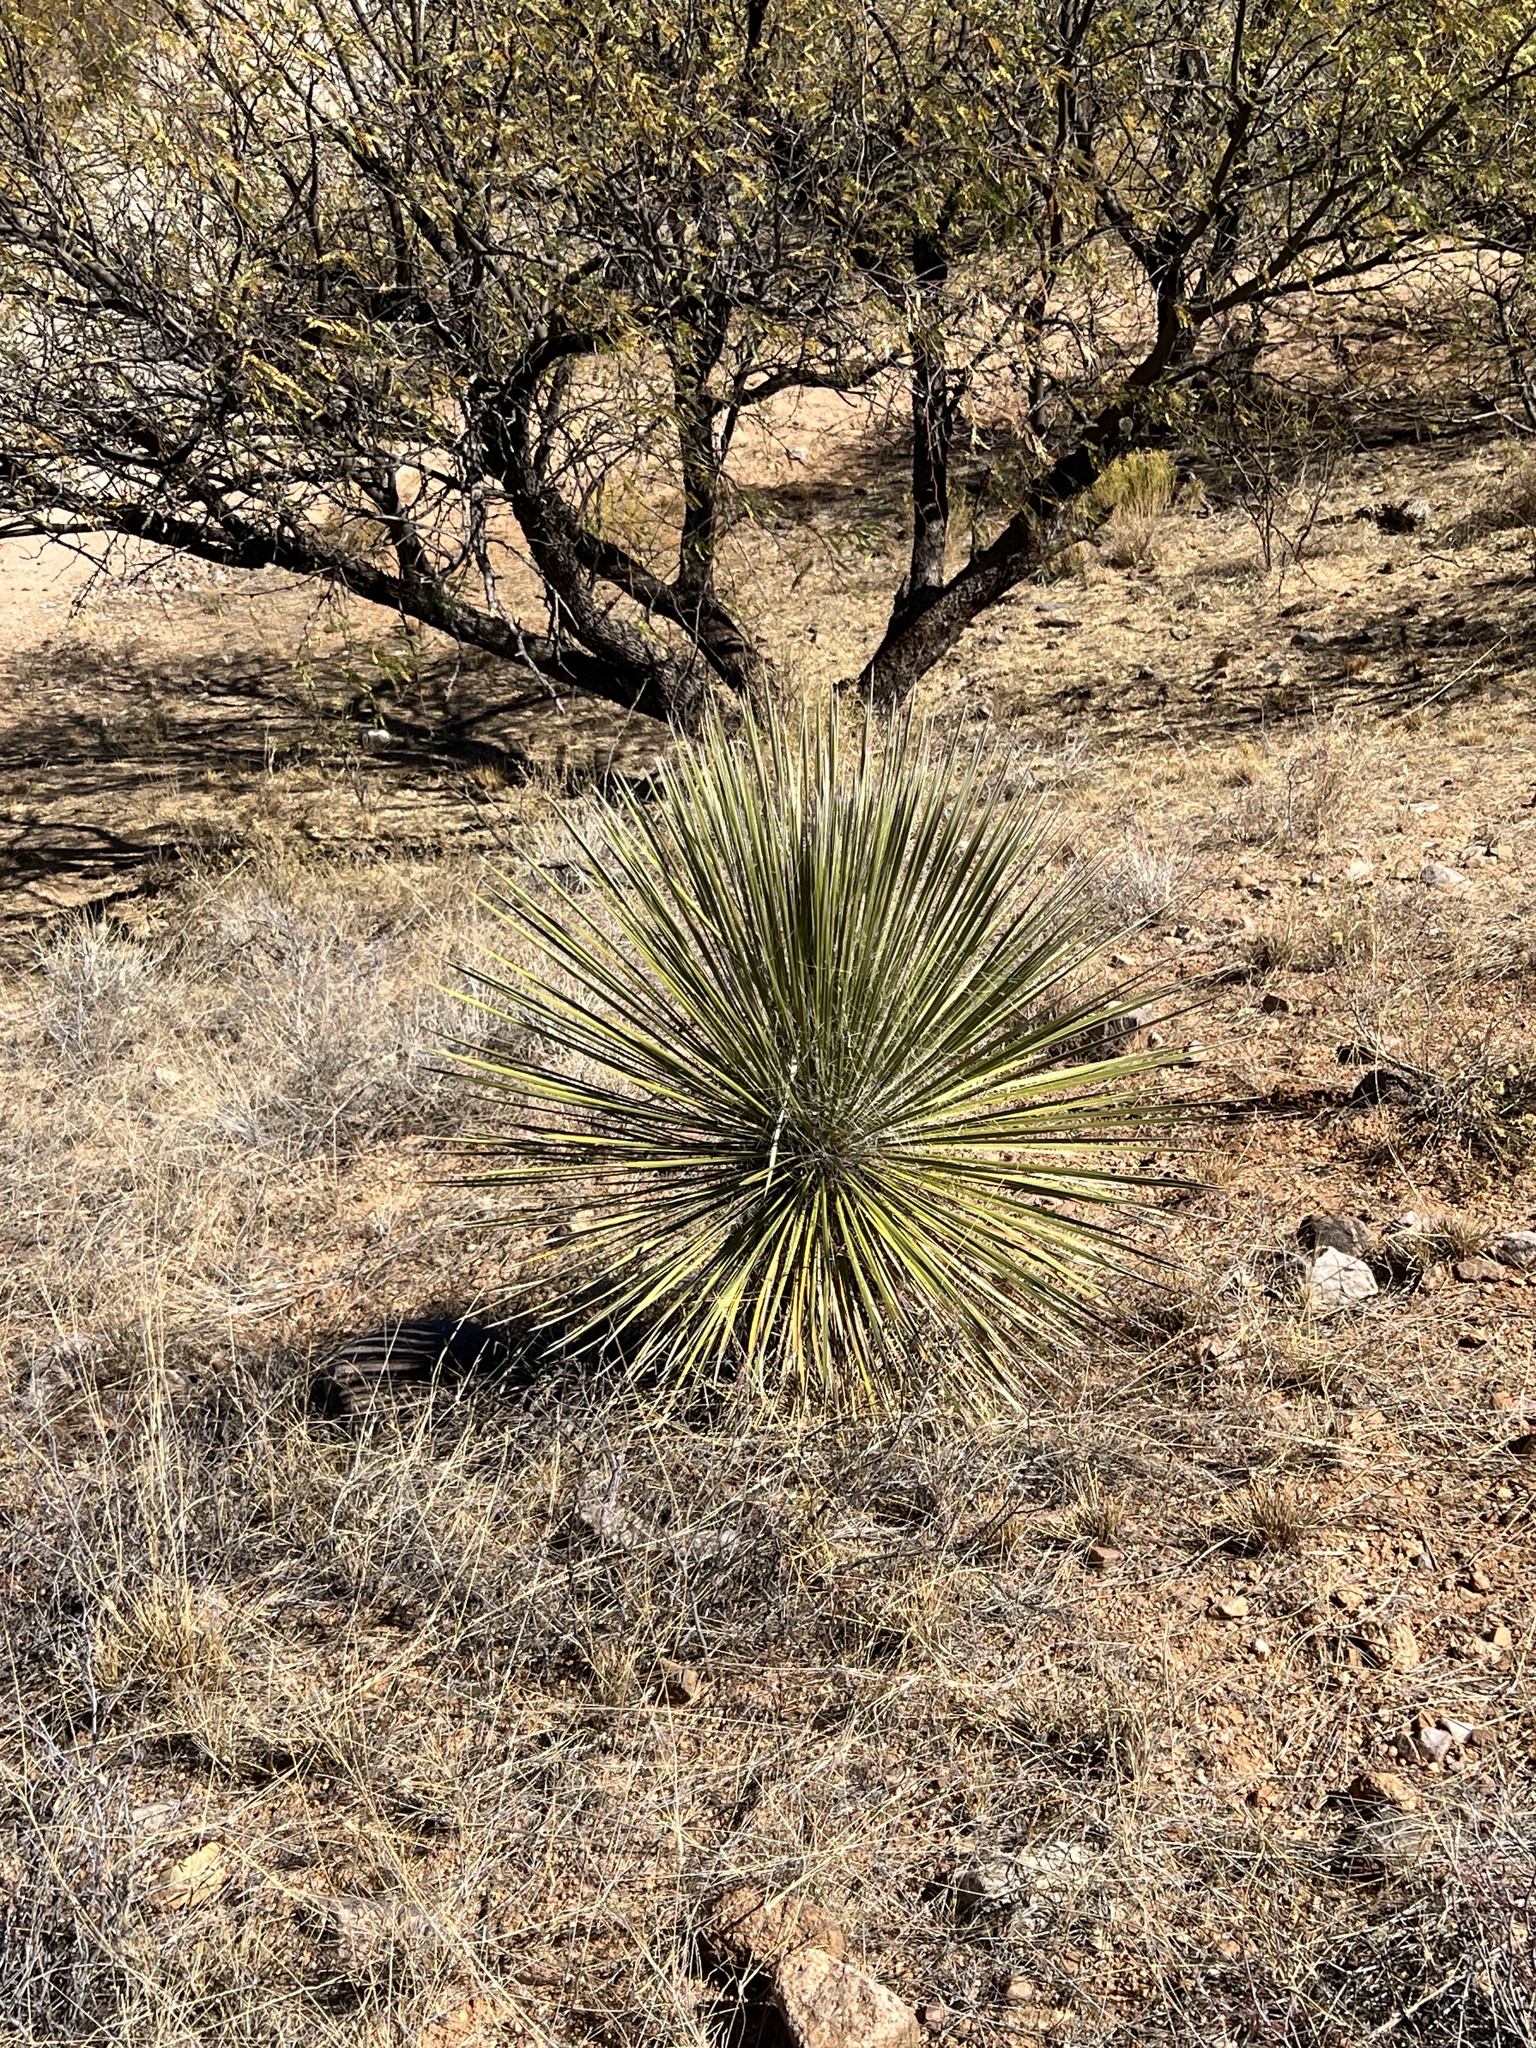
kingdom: Plantae
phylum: Tracheophyta
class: Liliopsida
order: Asparagales
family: Asparagaceae
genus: Yucca
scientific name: Yucca elata
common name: Palmella
